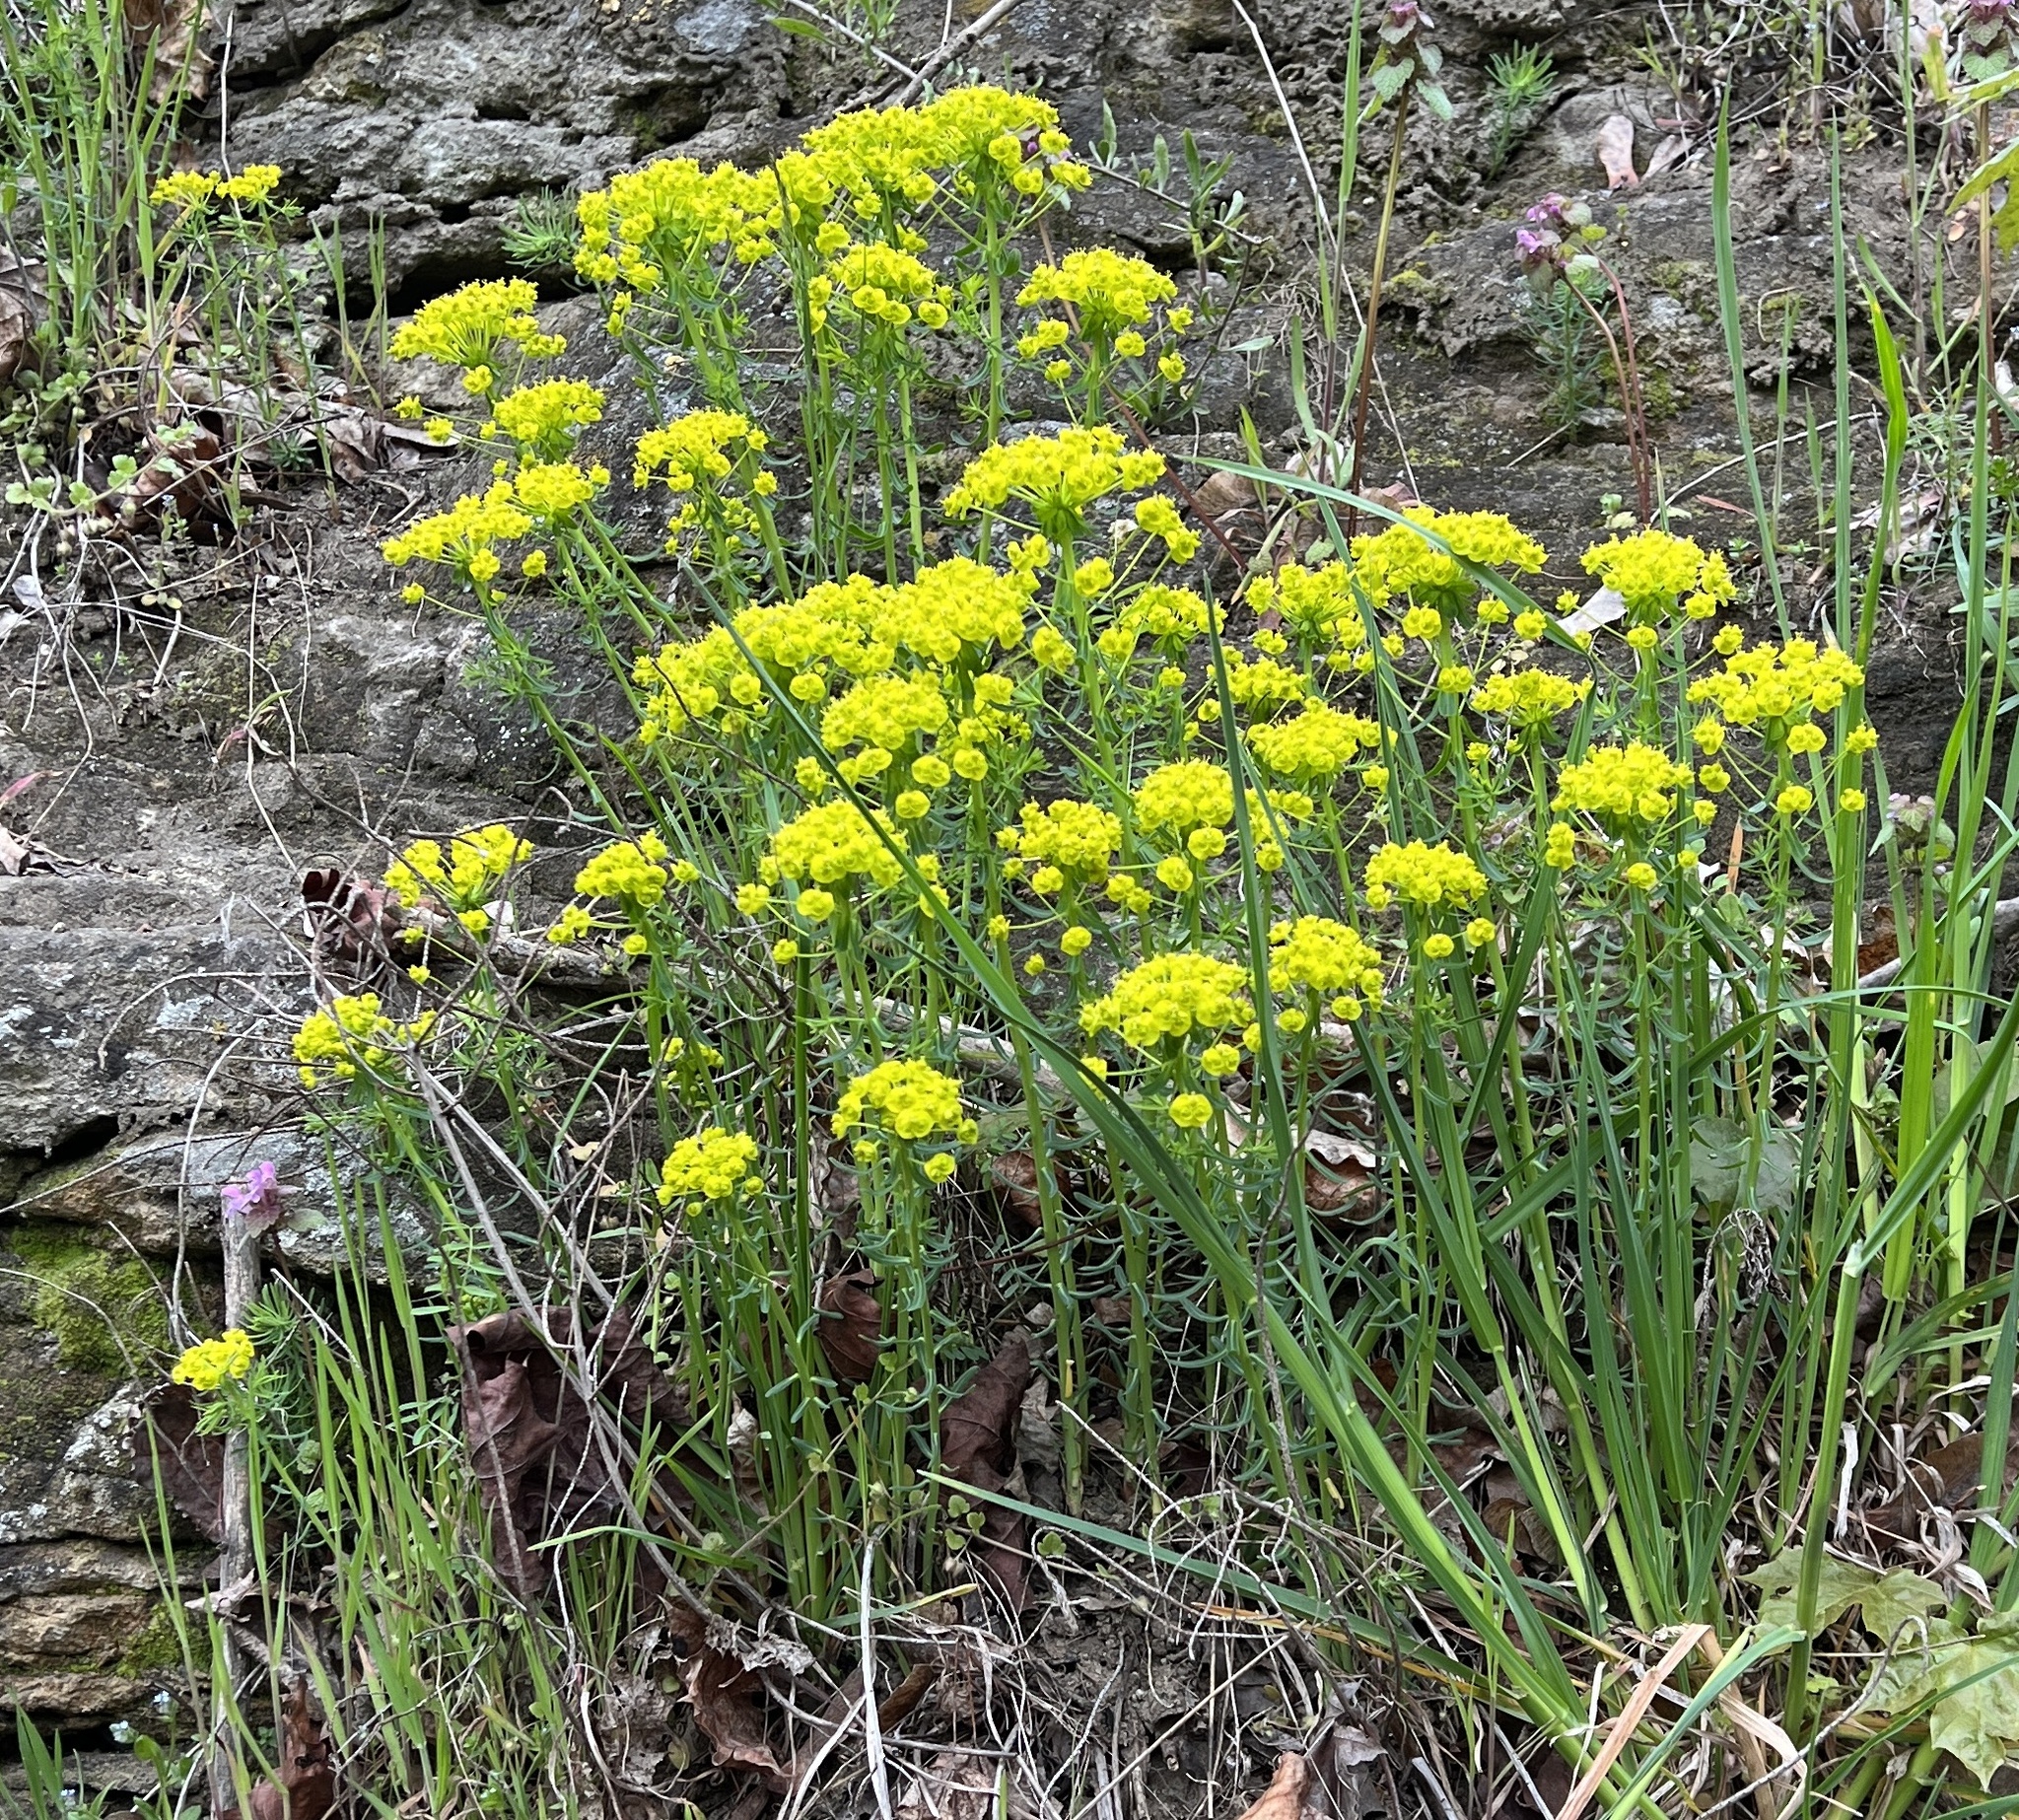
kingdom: Plantae
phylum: Tracheophyta
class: Magnoliopsida
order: Malpighiales
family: Euphorbiaceae
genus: Euphorbia
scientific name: Euphorbia cyparissias
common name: Cypress spurge
